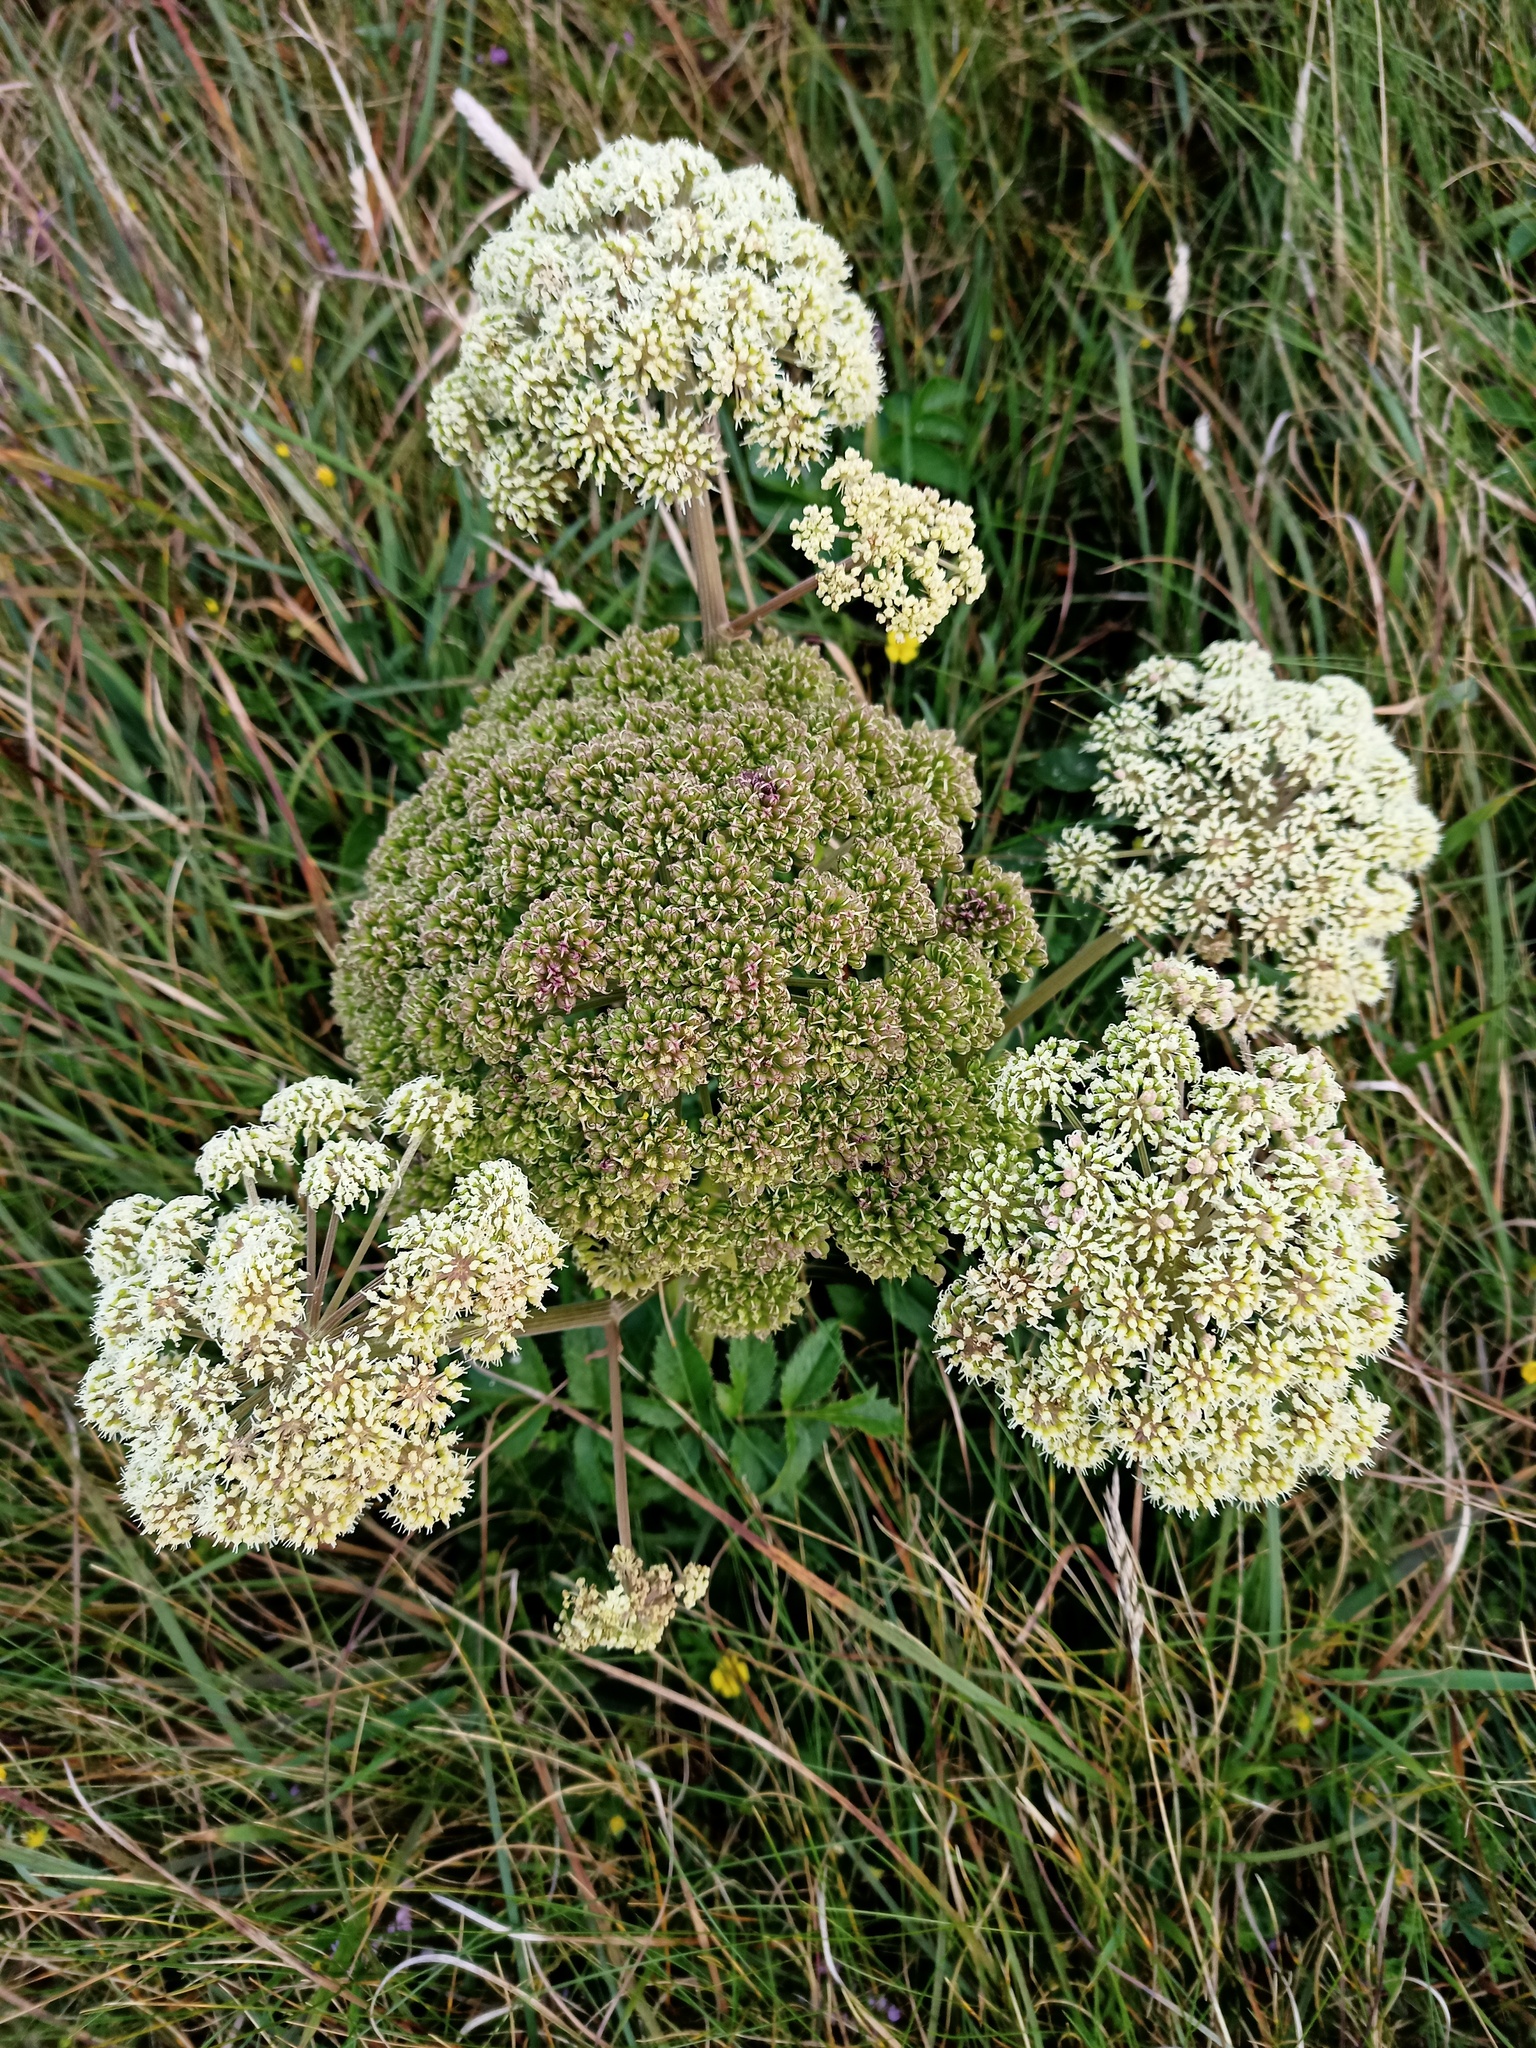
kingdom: Plantae
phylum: Tracheophyta
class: Magnoliopsida
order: Apiales
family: Apiaceae
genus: Angelica
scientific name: Angelica sylvestris
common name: Wild angelica
